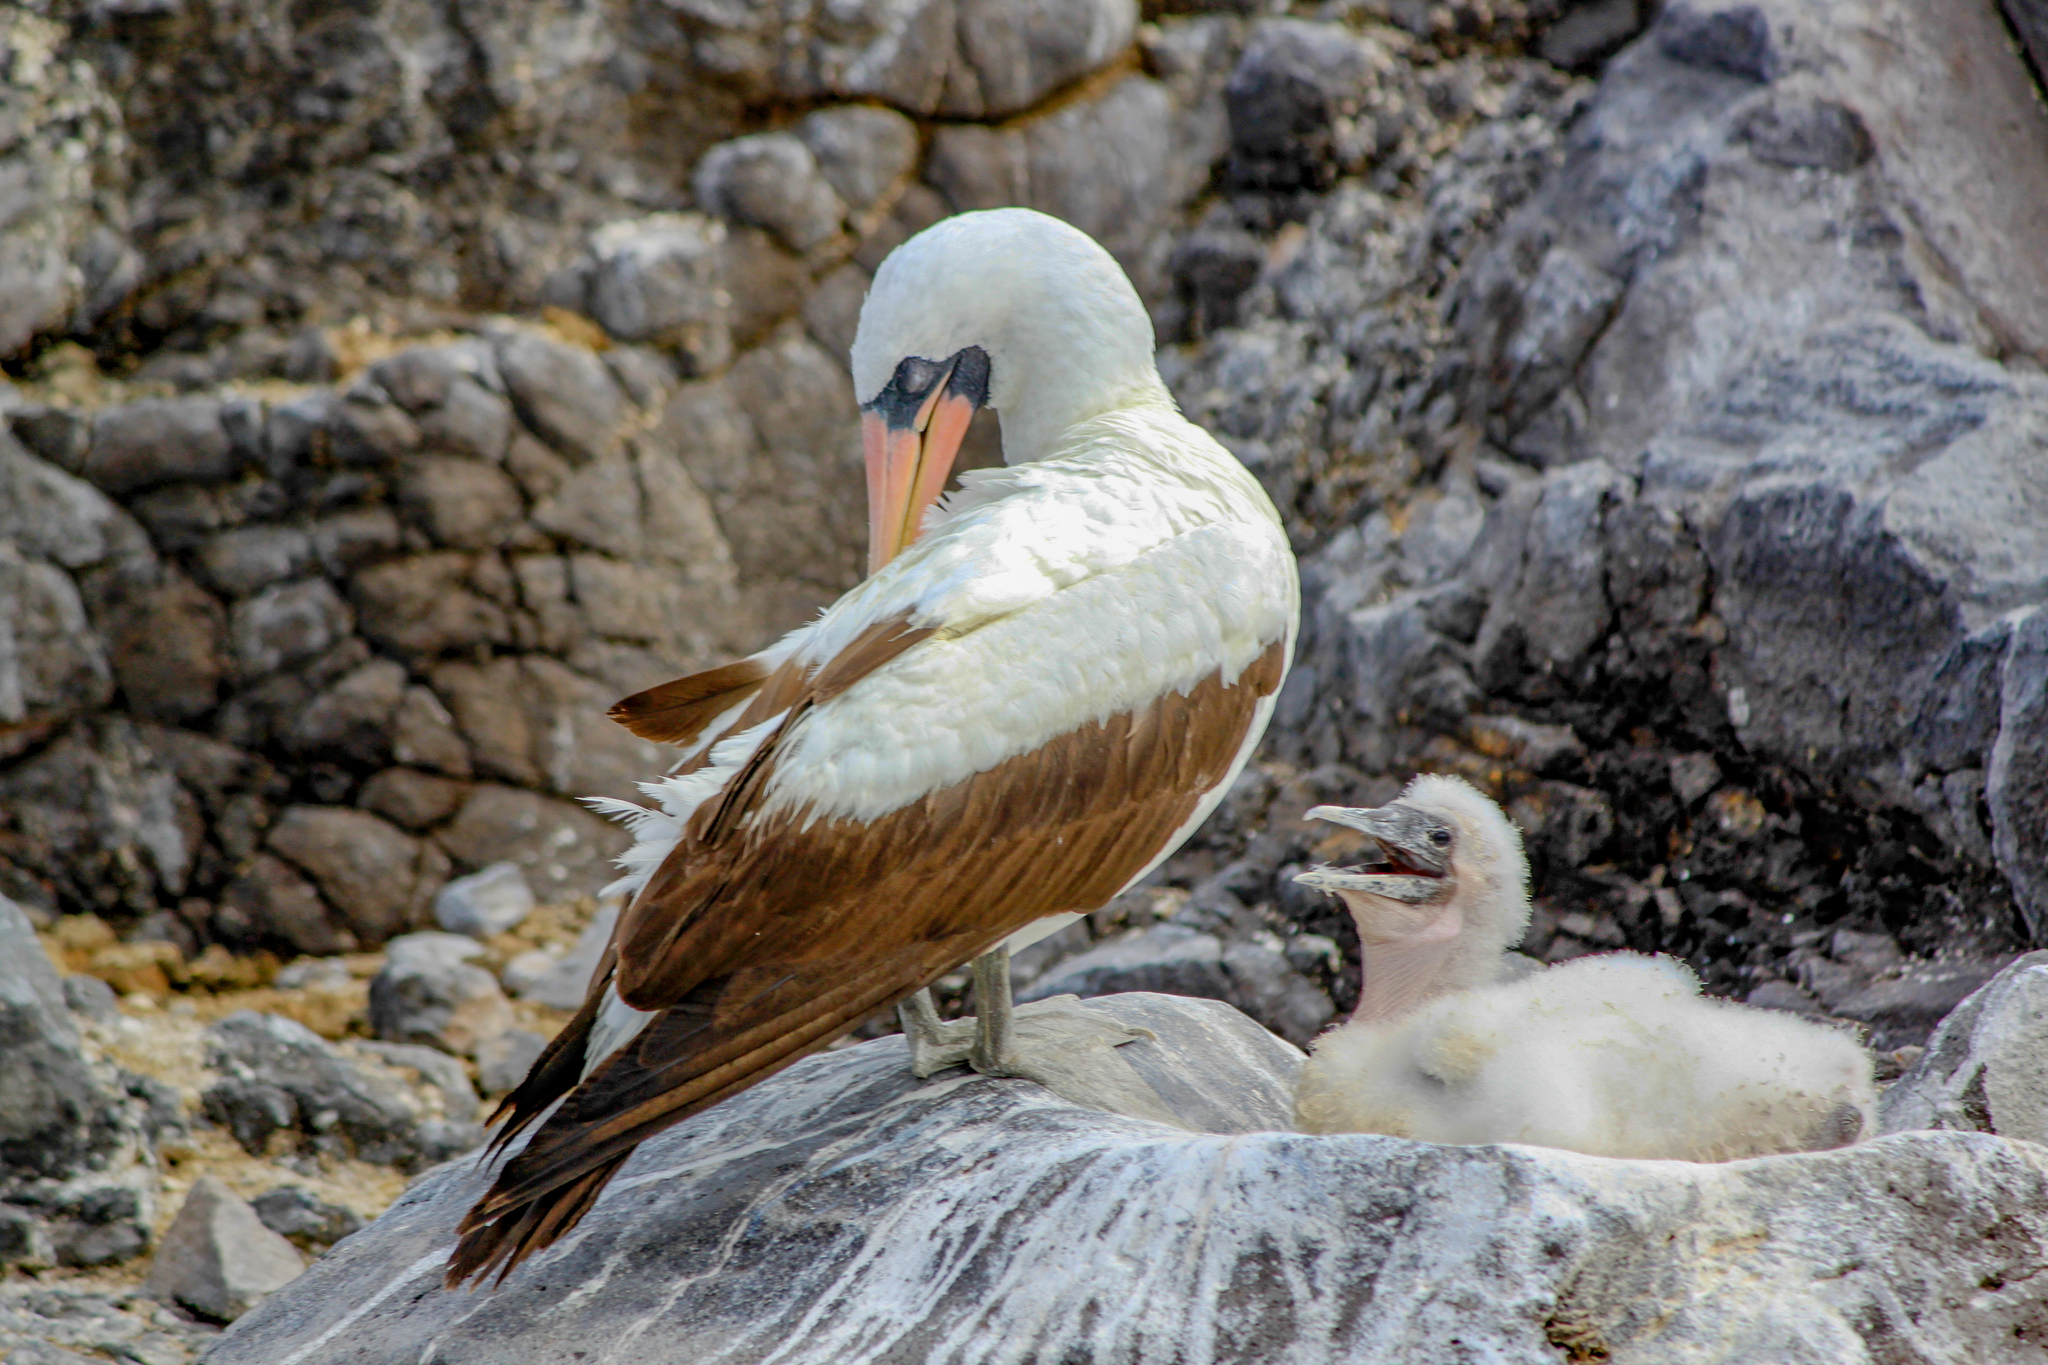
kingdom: Animalia
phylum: Chordata
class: Aves
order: Suliformes
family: Sulidae
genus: Sula
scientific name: Sula granti
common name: Nazca booby
